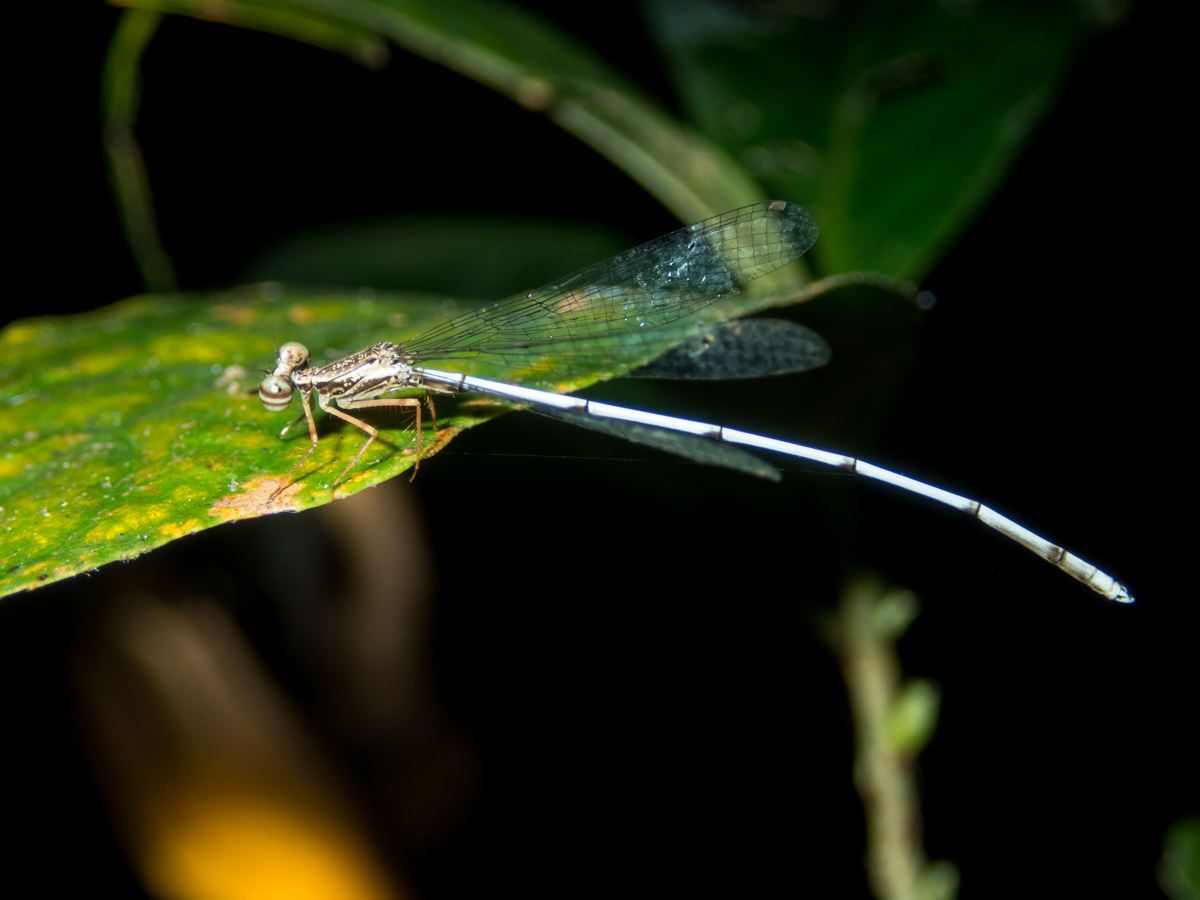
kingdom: Animalia
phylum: Arthropoda
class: Insecta
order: Odonata
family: Platycnemididae
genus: Copera
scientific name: Copera vittata
